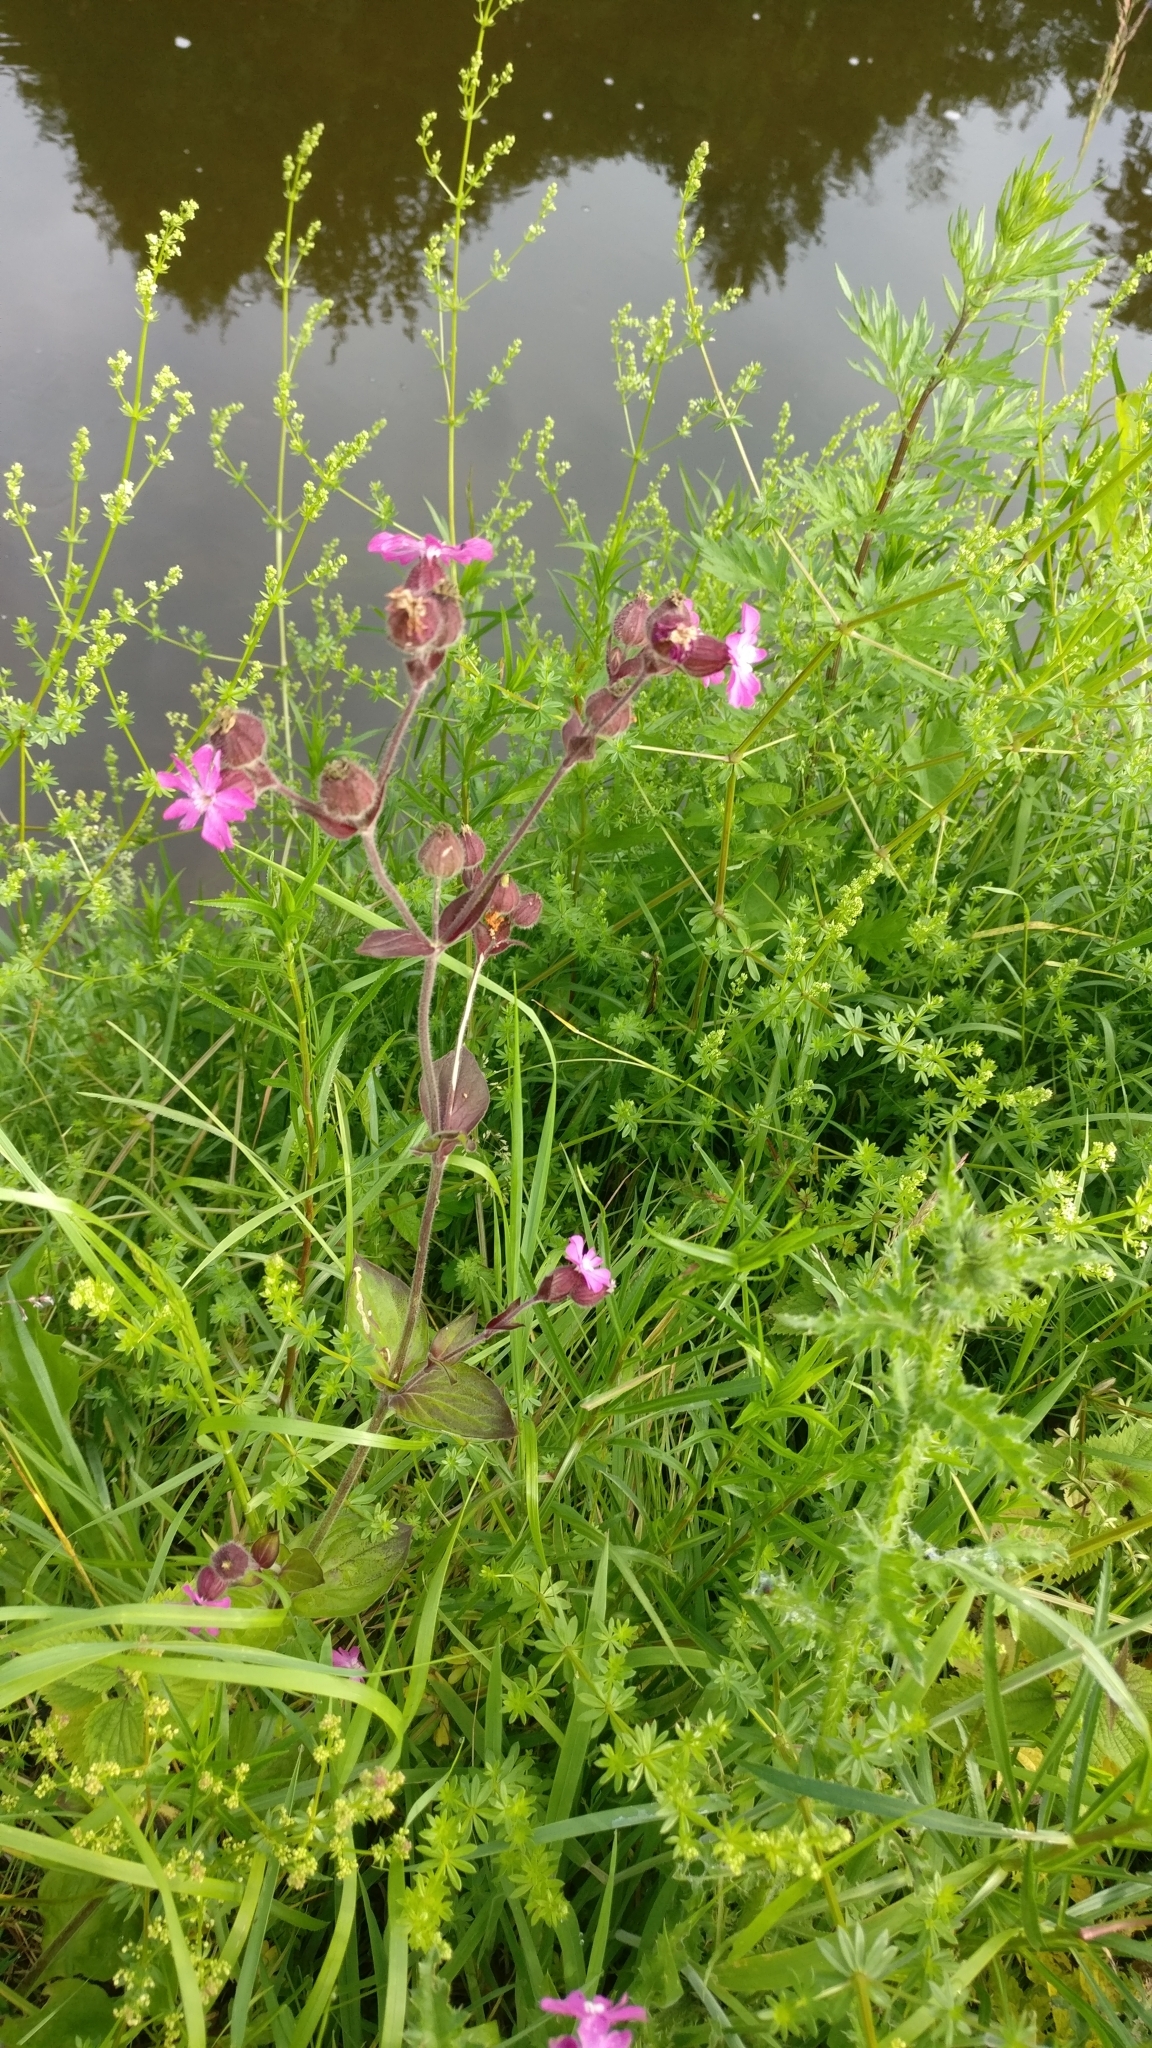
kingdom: Plantae
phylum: Tracheophyta
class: Magnoliopsida
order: Caryophyllales
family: Caryophyllaceae
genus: Silene
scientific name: Silene dioica
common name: Red campion
